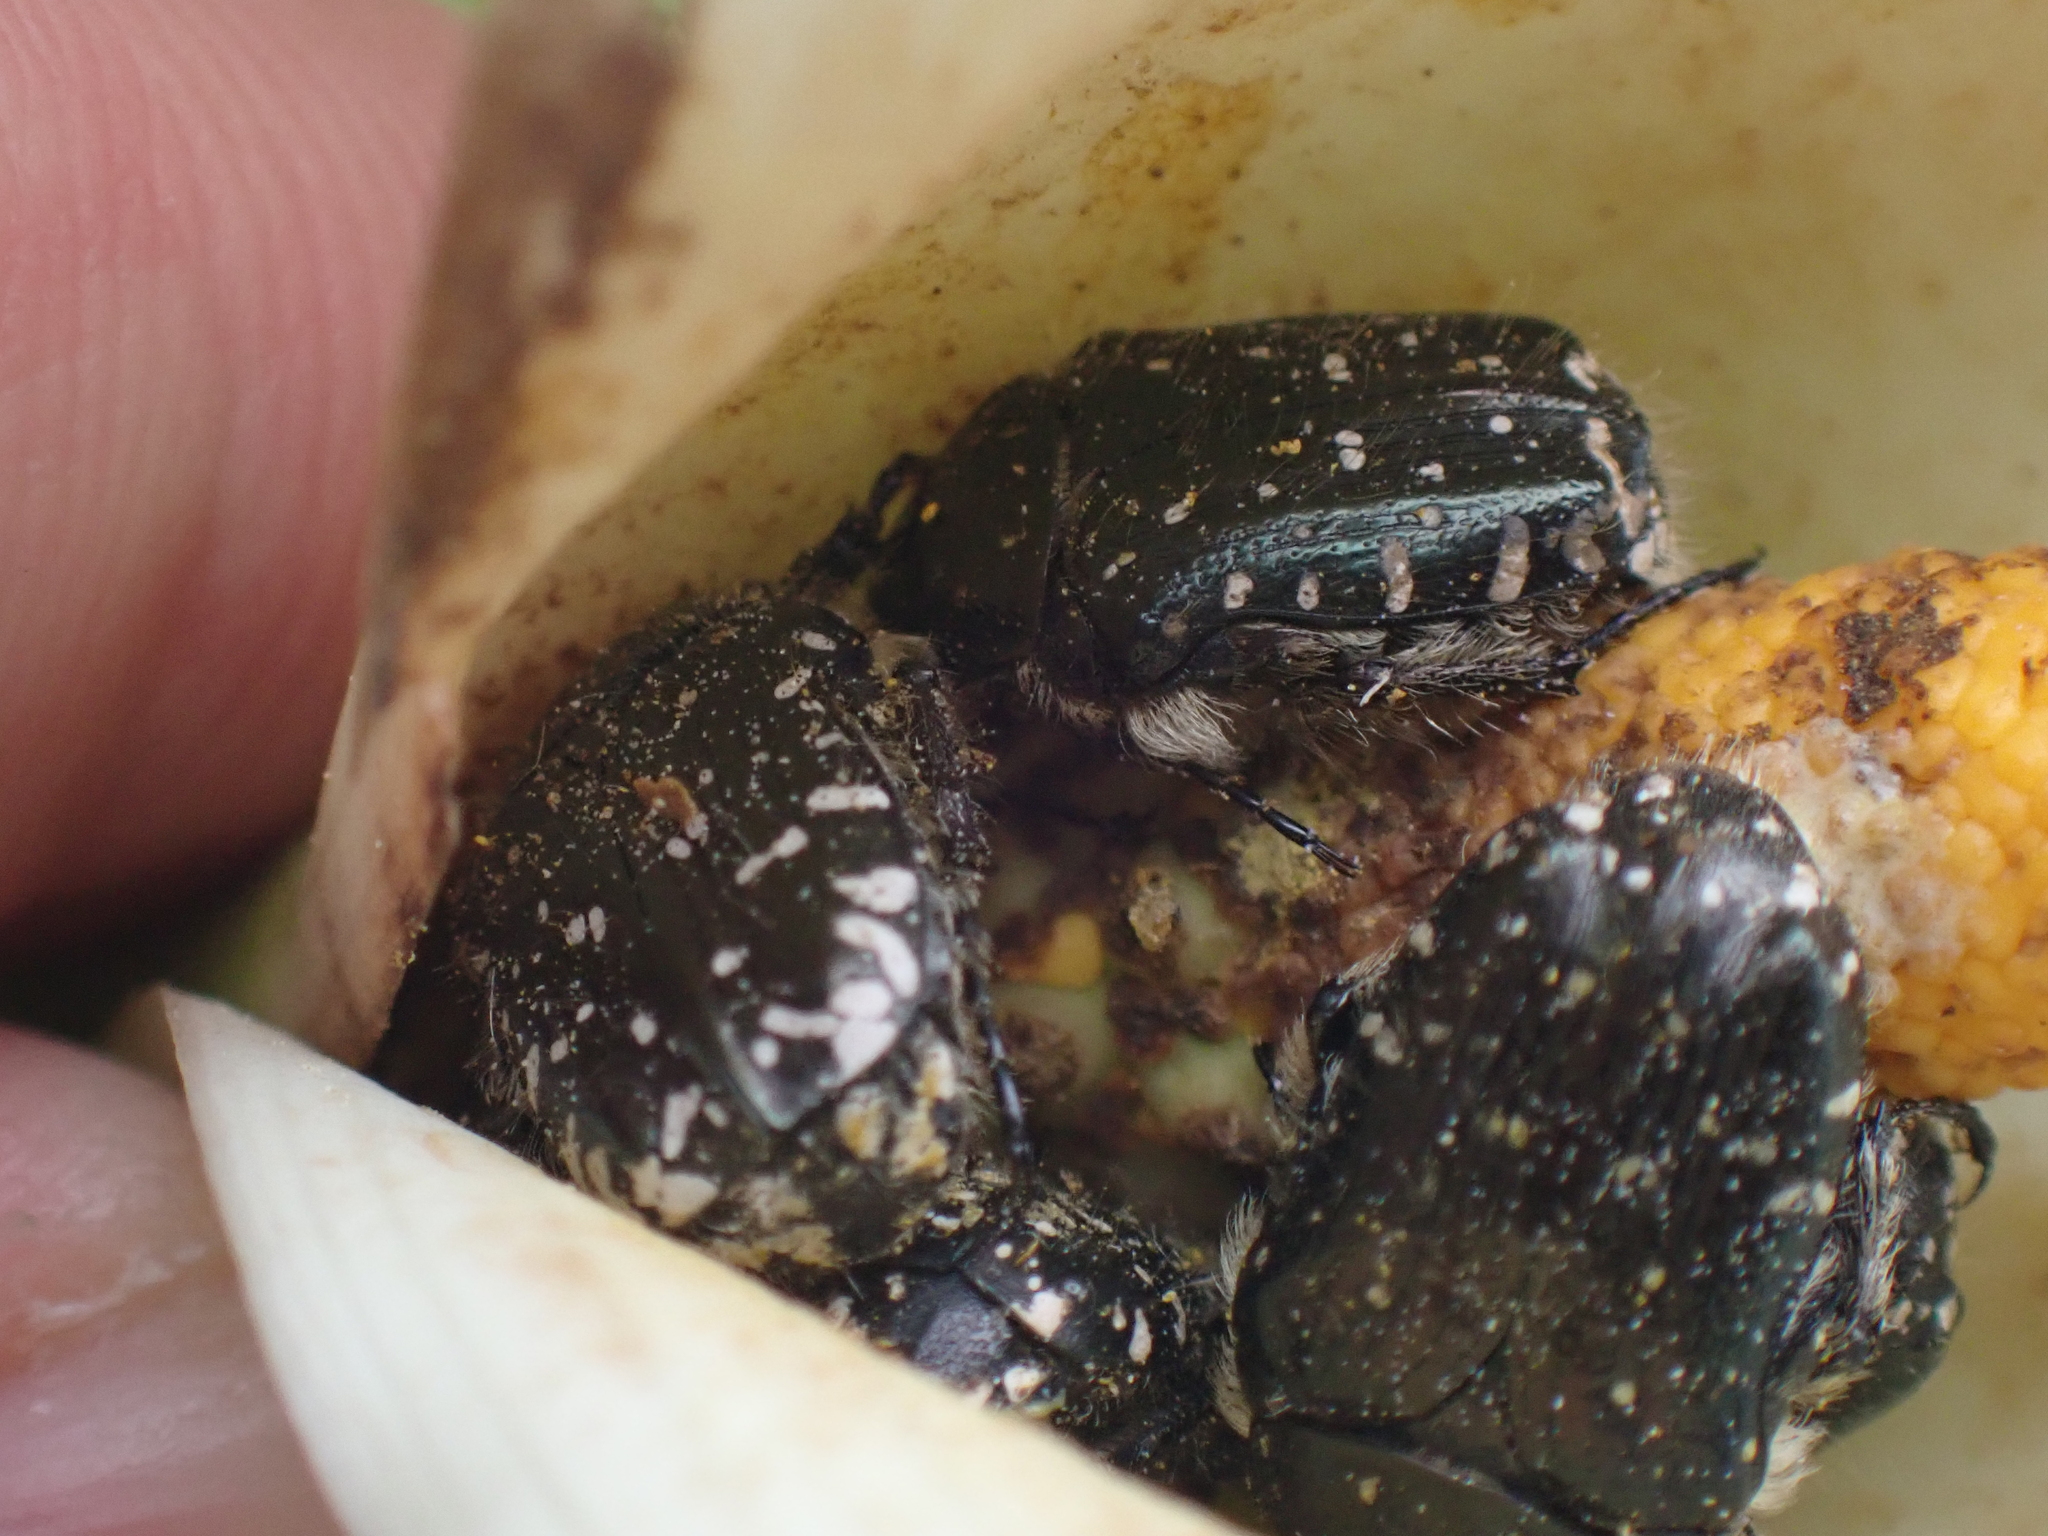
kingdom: Animalia
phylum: Arthropoda
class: Insecta
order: Coleoptera
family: Scarabaeidae
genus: Oxythyrea
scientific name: Oxythyrea funesta
